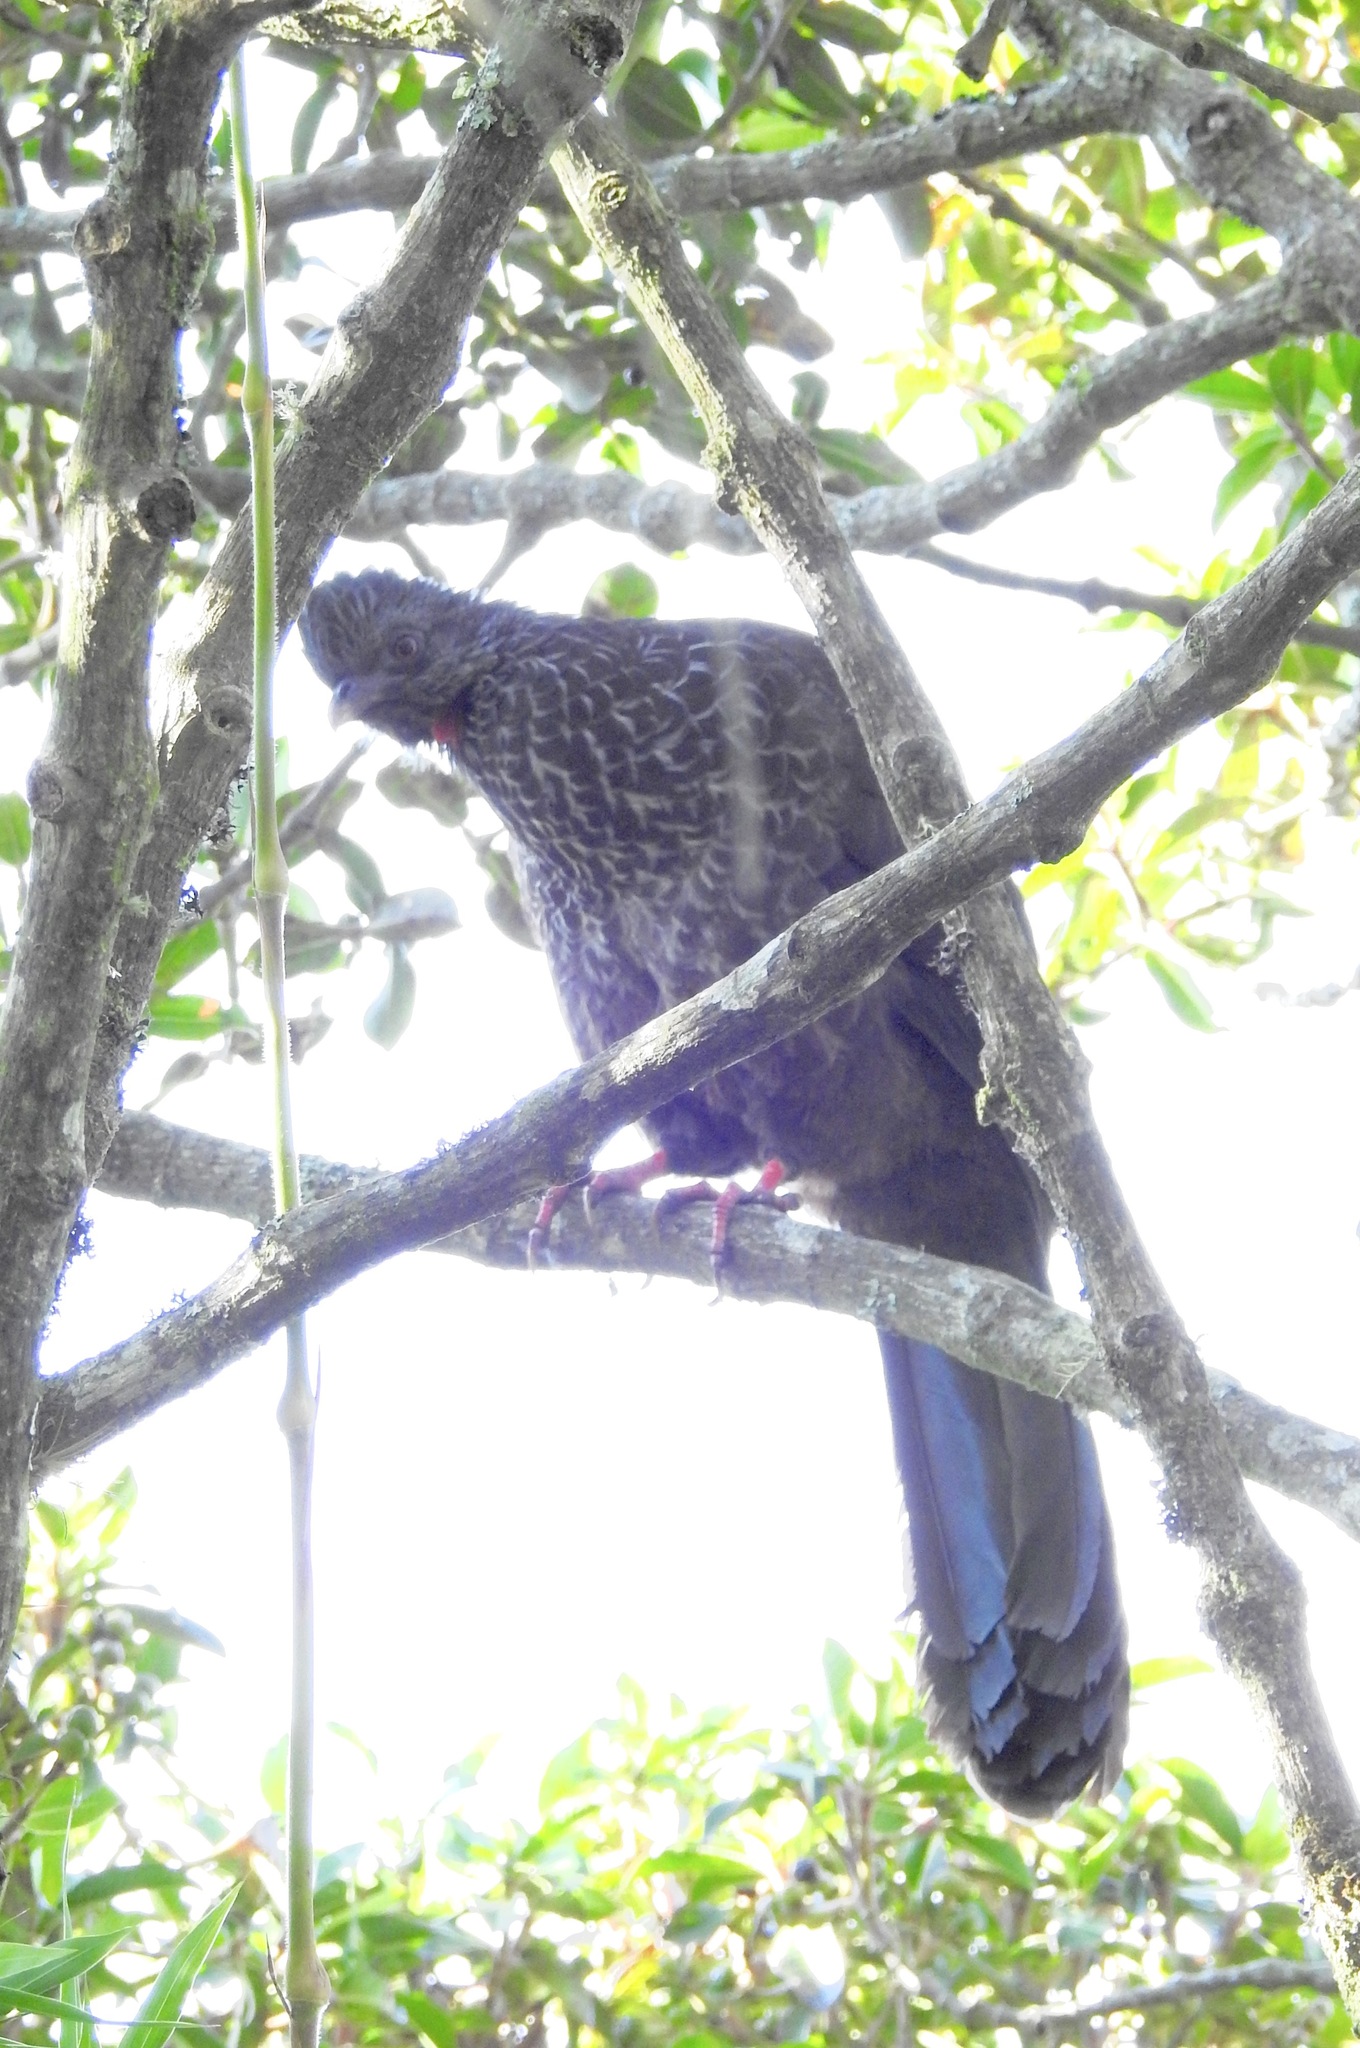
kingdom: Animalia
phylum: Chordata
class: Aves
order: Galliformes
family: Cracidae
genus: Penelope
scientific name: Penelope montagnii
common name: Andean guan
